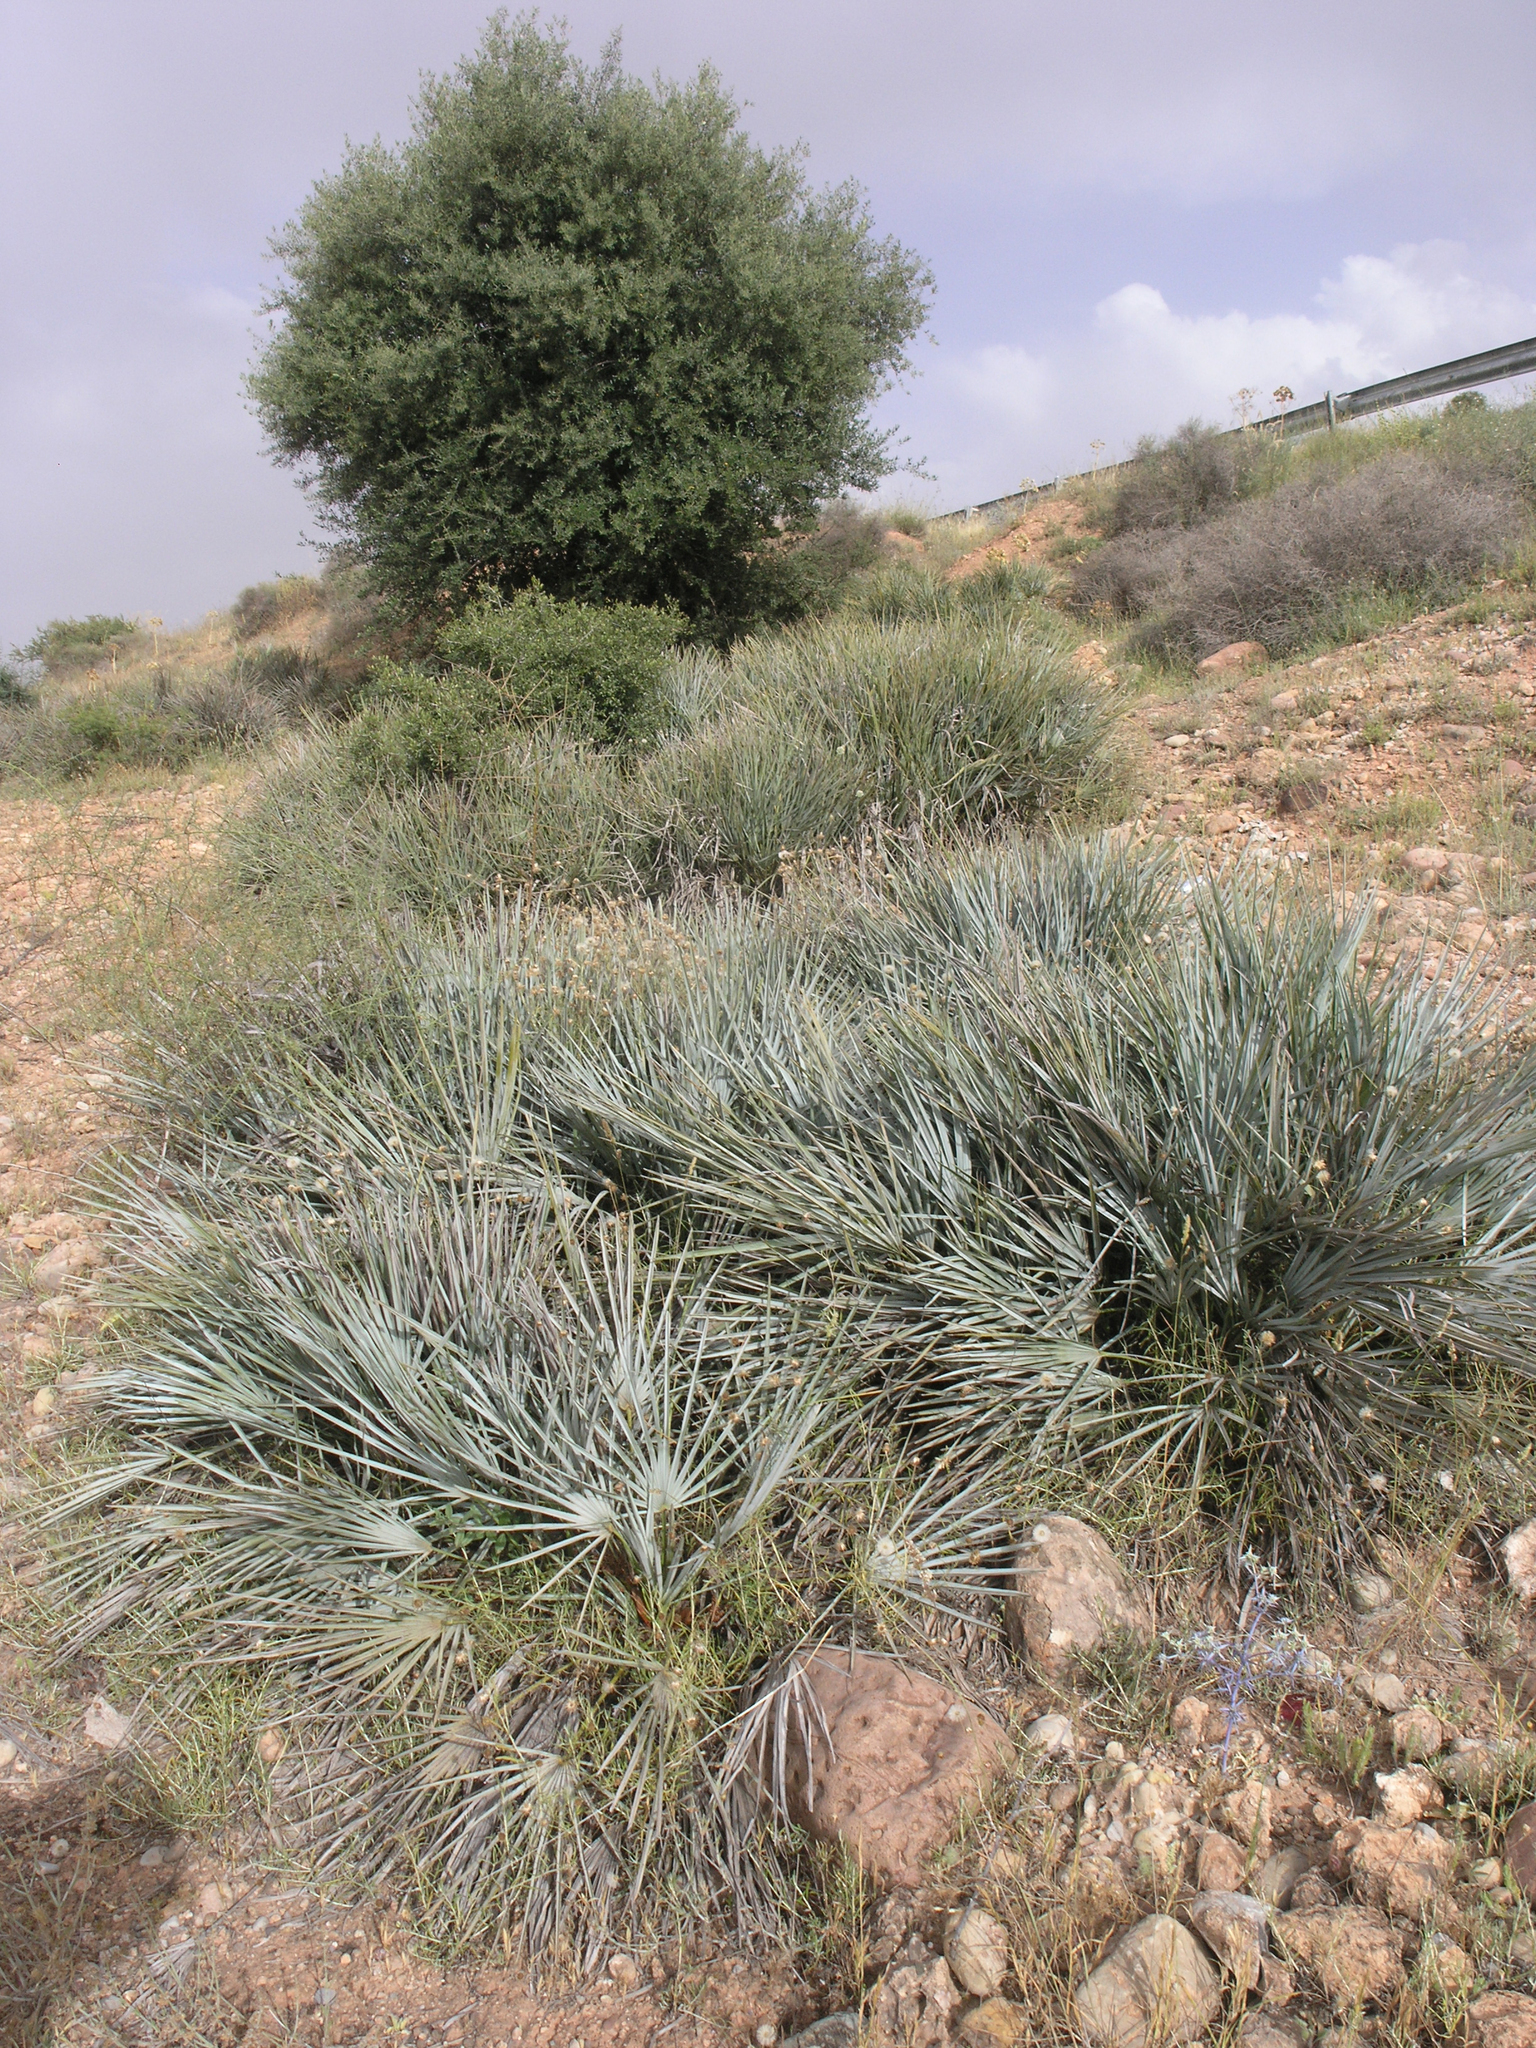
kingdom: Plantae
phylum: Tracheophyta
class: Liliopsida
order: Arecales
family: Arecaceae
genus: Chamaerops
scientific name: Chamaerops humilis
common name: Dwarf fan palm
